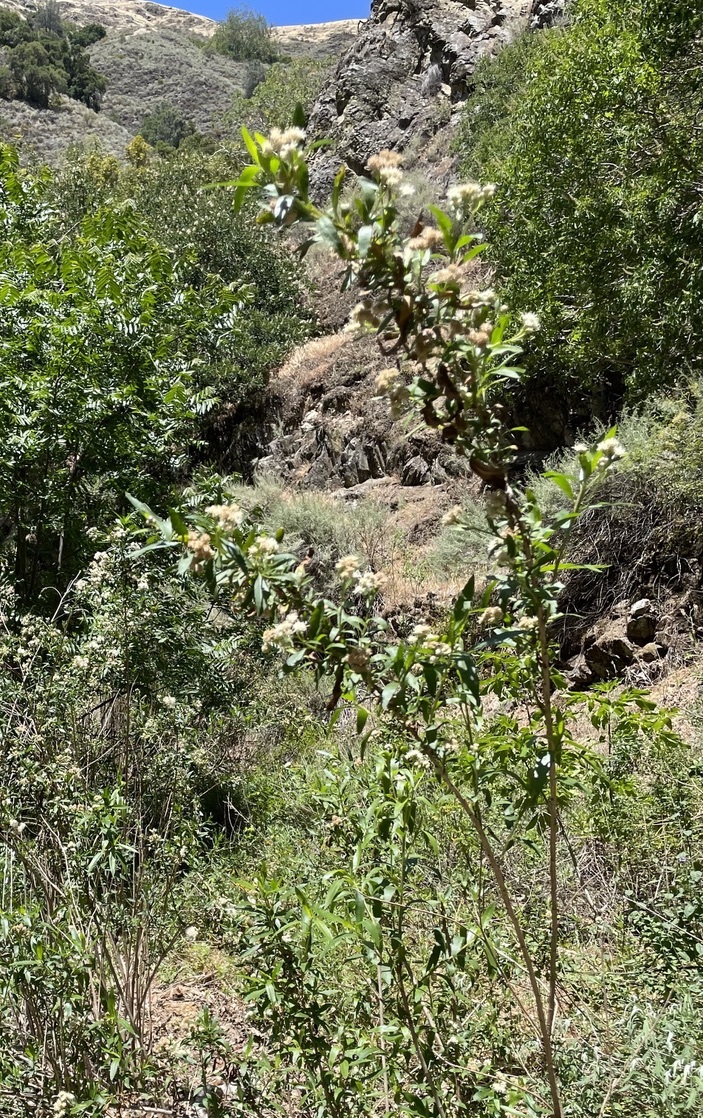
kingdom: Plantae
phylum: Tracheophyta
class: Magnoliopsida
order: Asterales
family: Asteraceae
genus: Baccharis
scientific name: Baccharis salicifolia
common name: Sticky baccharis
